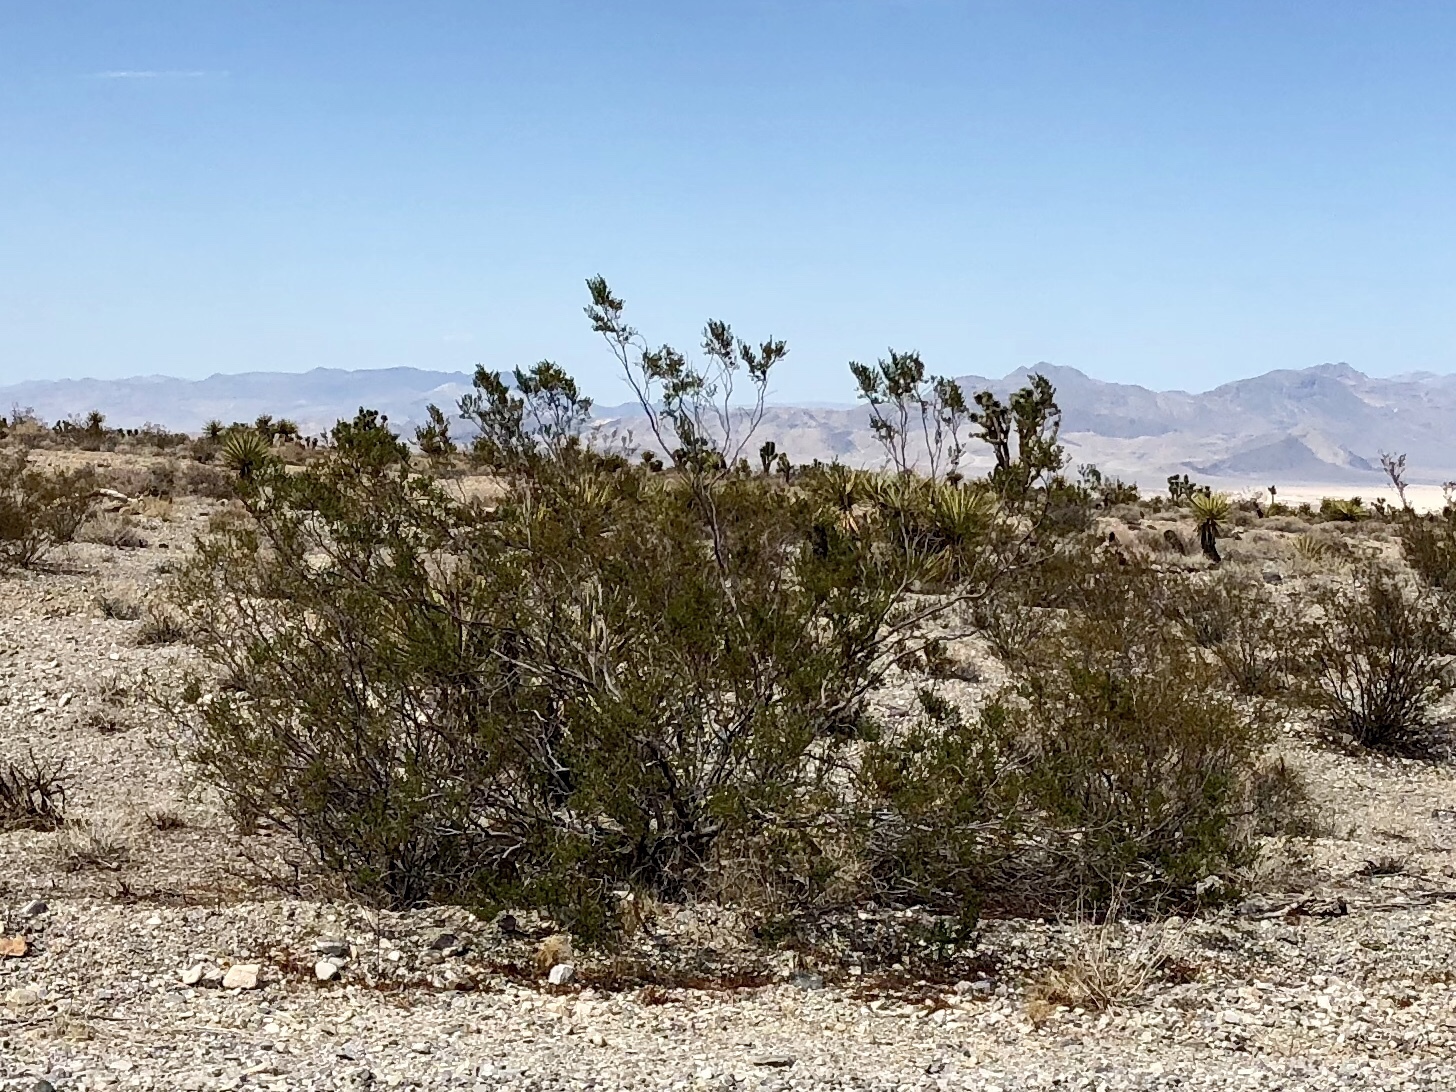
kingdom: Plantae
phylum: Tracheophyta
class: Magnoliopsida
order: Zygophyllales
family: Zygophyllaceae
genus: Larrea
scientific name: Larrea tridentata
